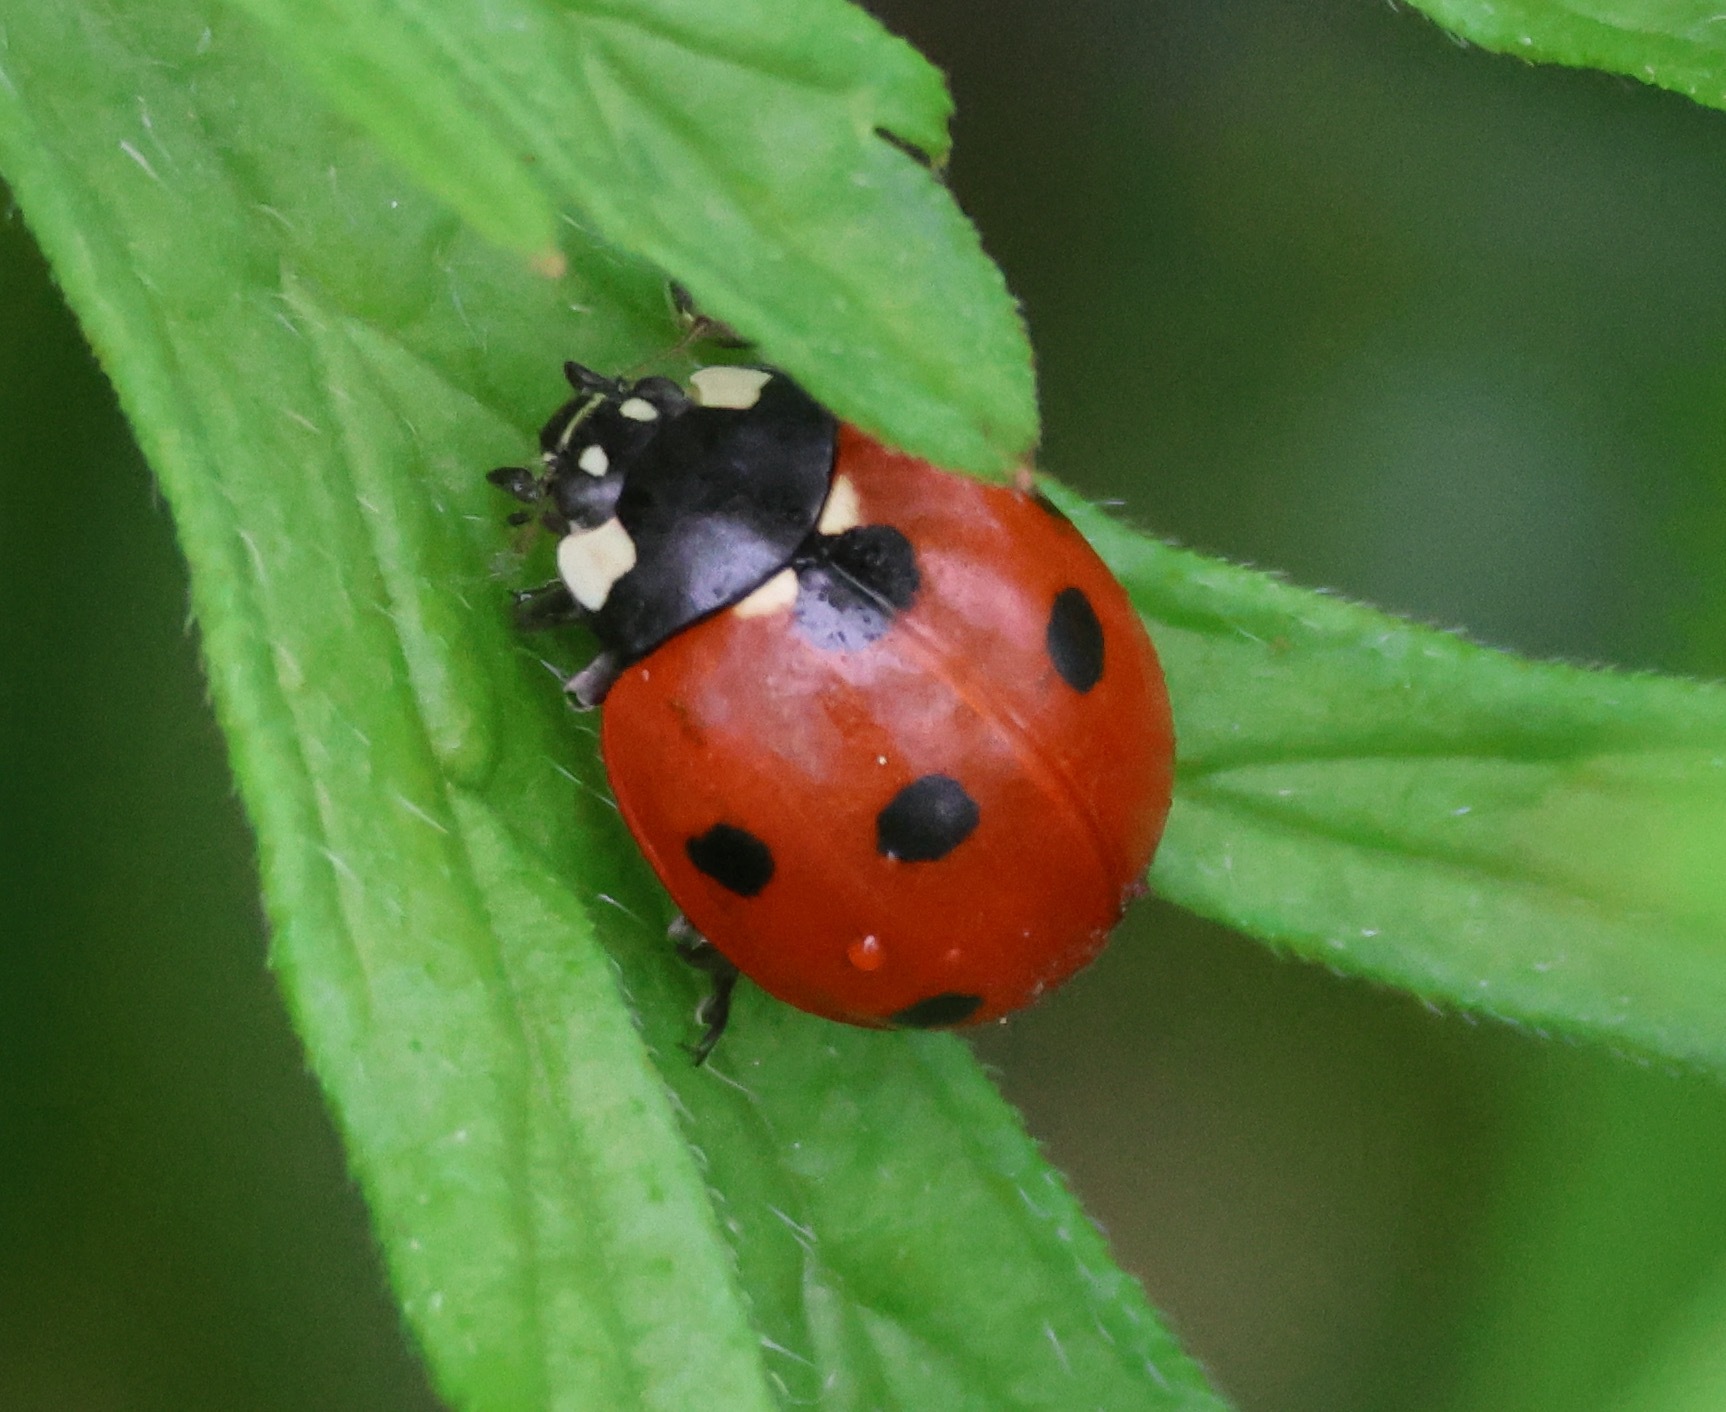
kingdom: Animalia
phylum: Arthropoda
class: Insecta
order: Coleoptera
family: Coccinellidae
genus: Coccinella
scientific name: Coccinella septempunctata
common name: Sevenspotted lady beetle
